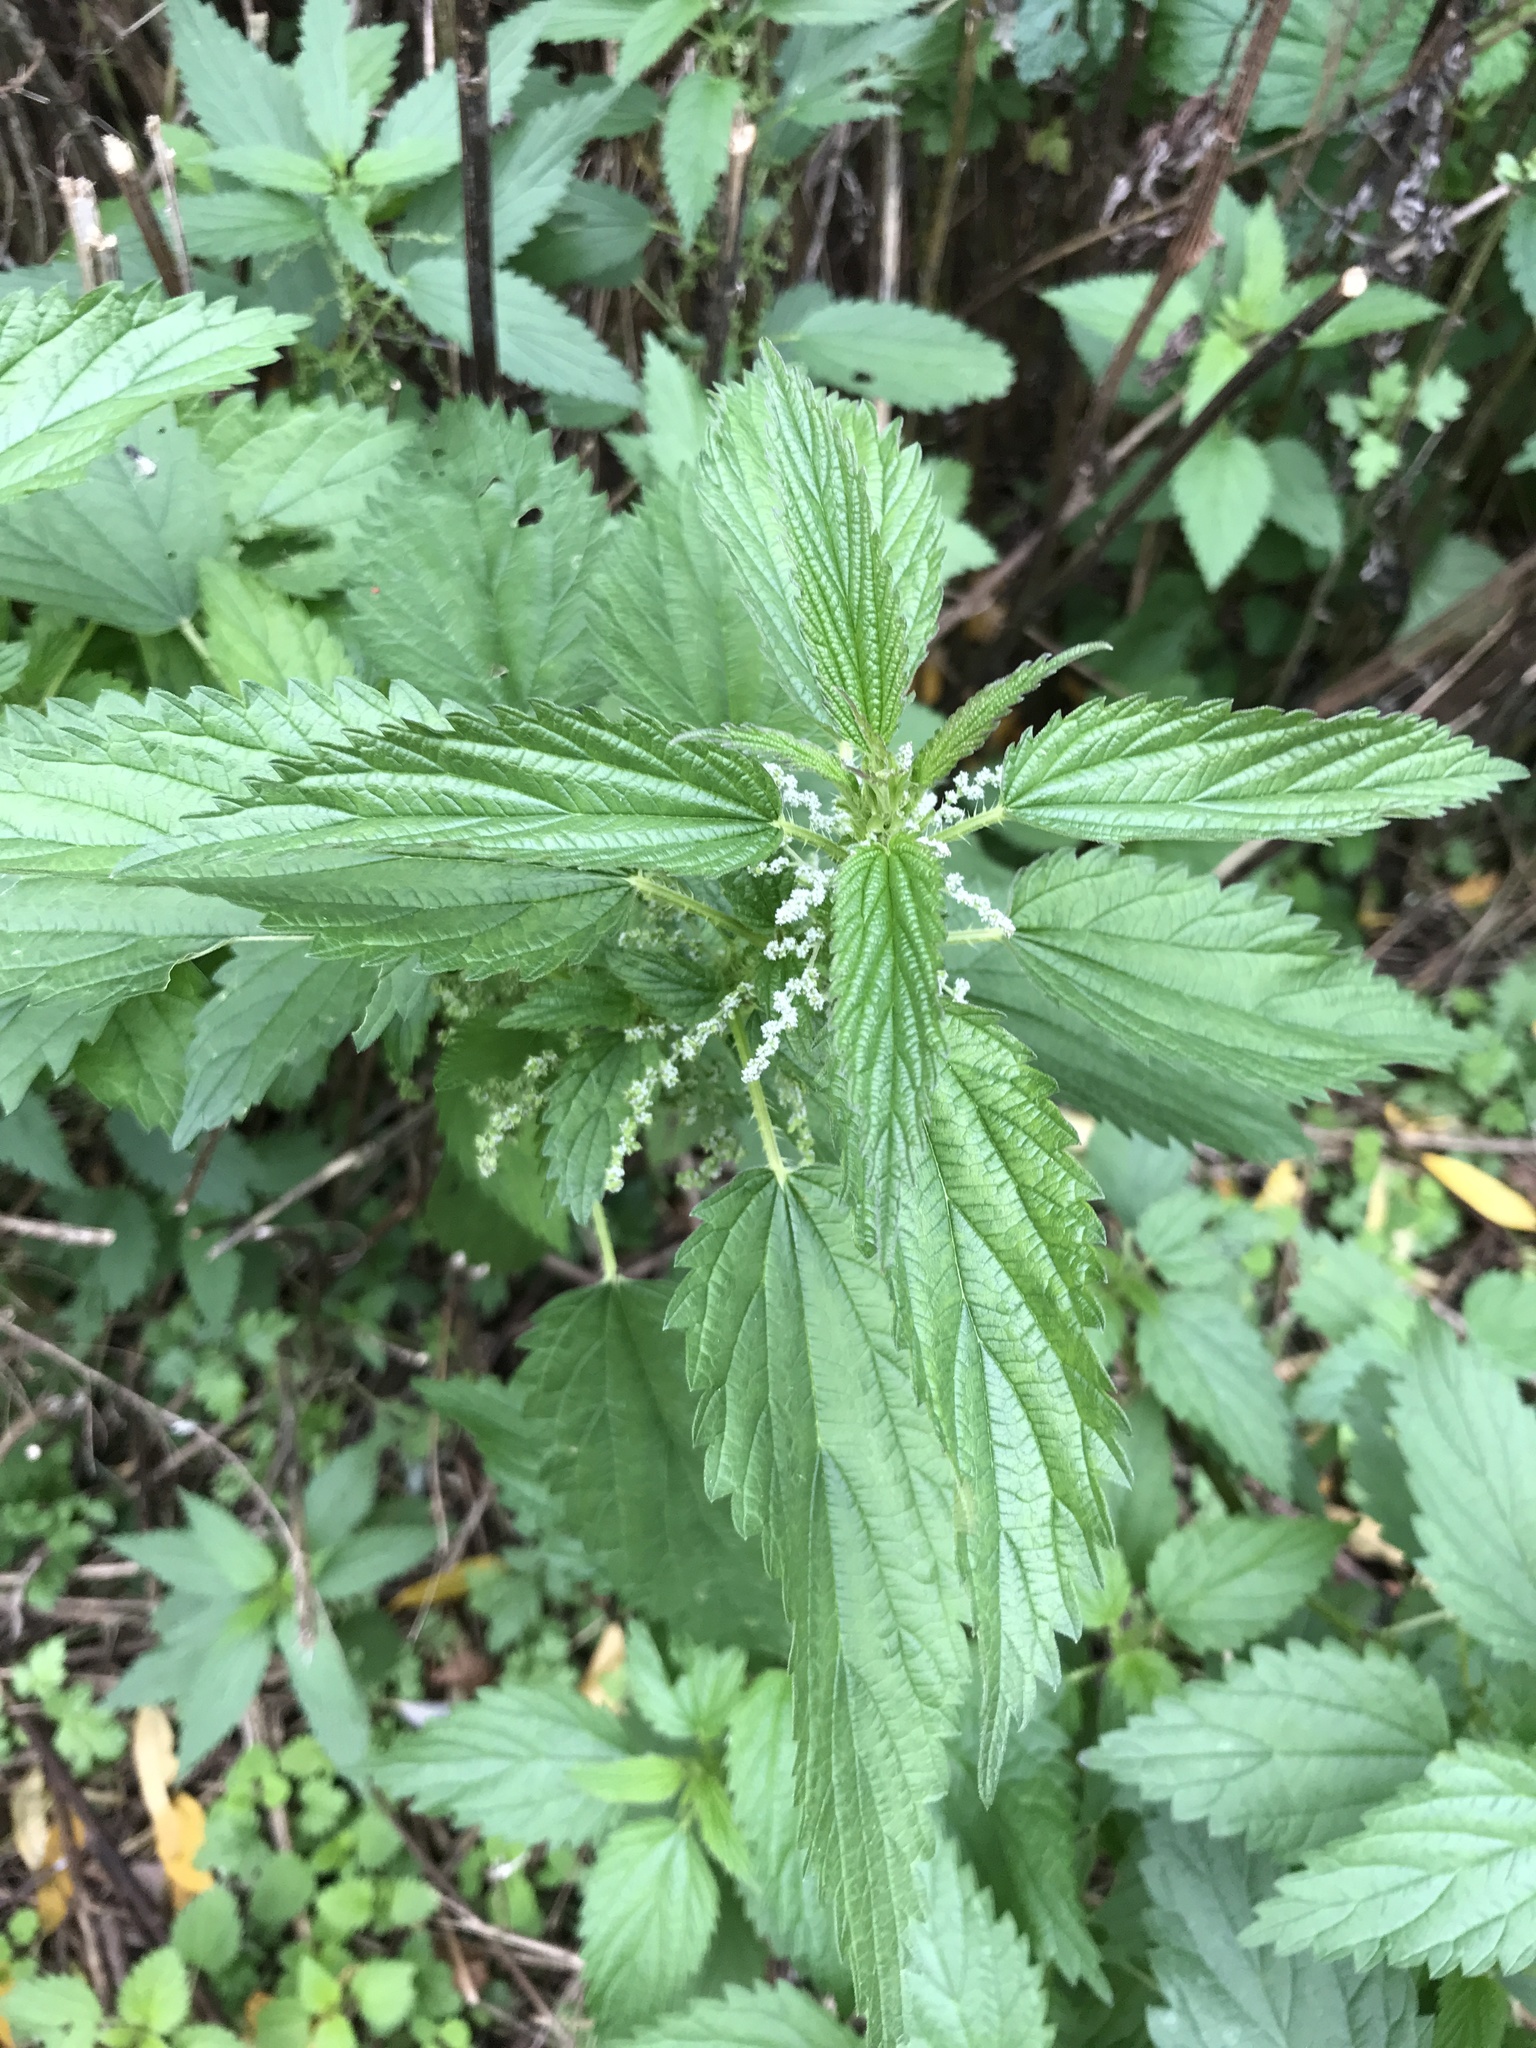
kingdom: Plantae
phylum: Tracheophyta
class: Magnoliopsida
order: Rosales
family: Urticaceae
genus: Urtica
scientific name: Urtica dioica
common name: Common nettle
